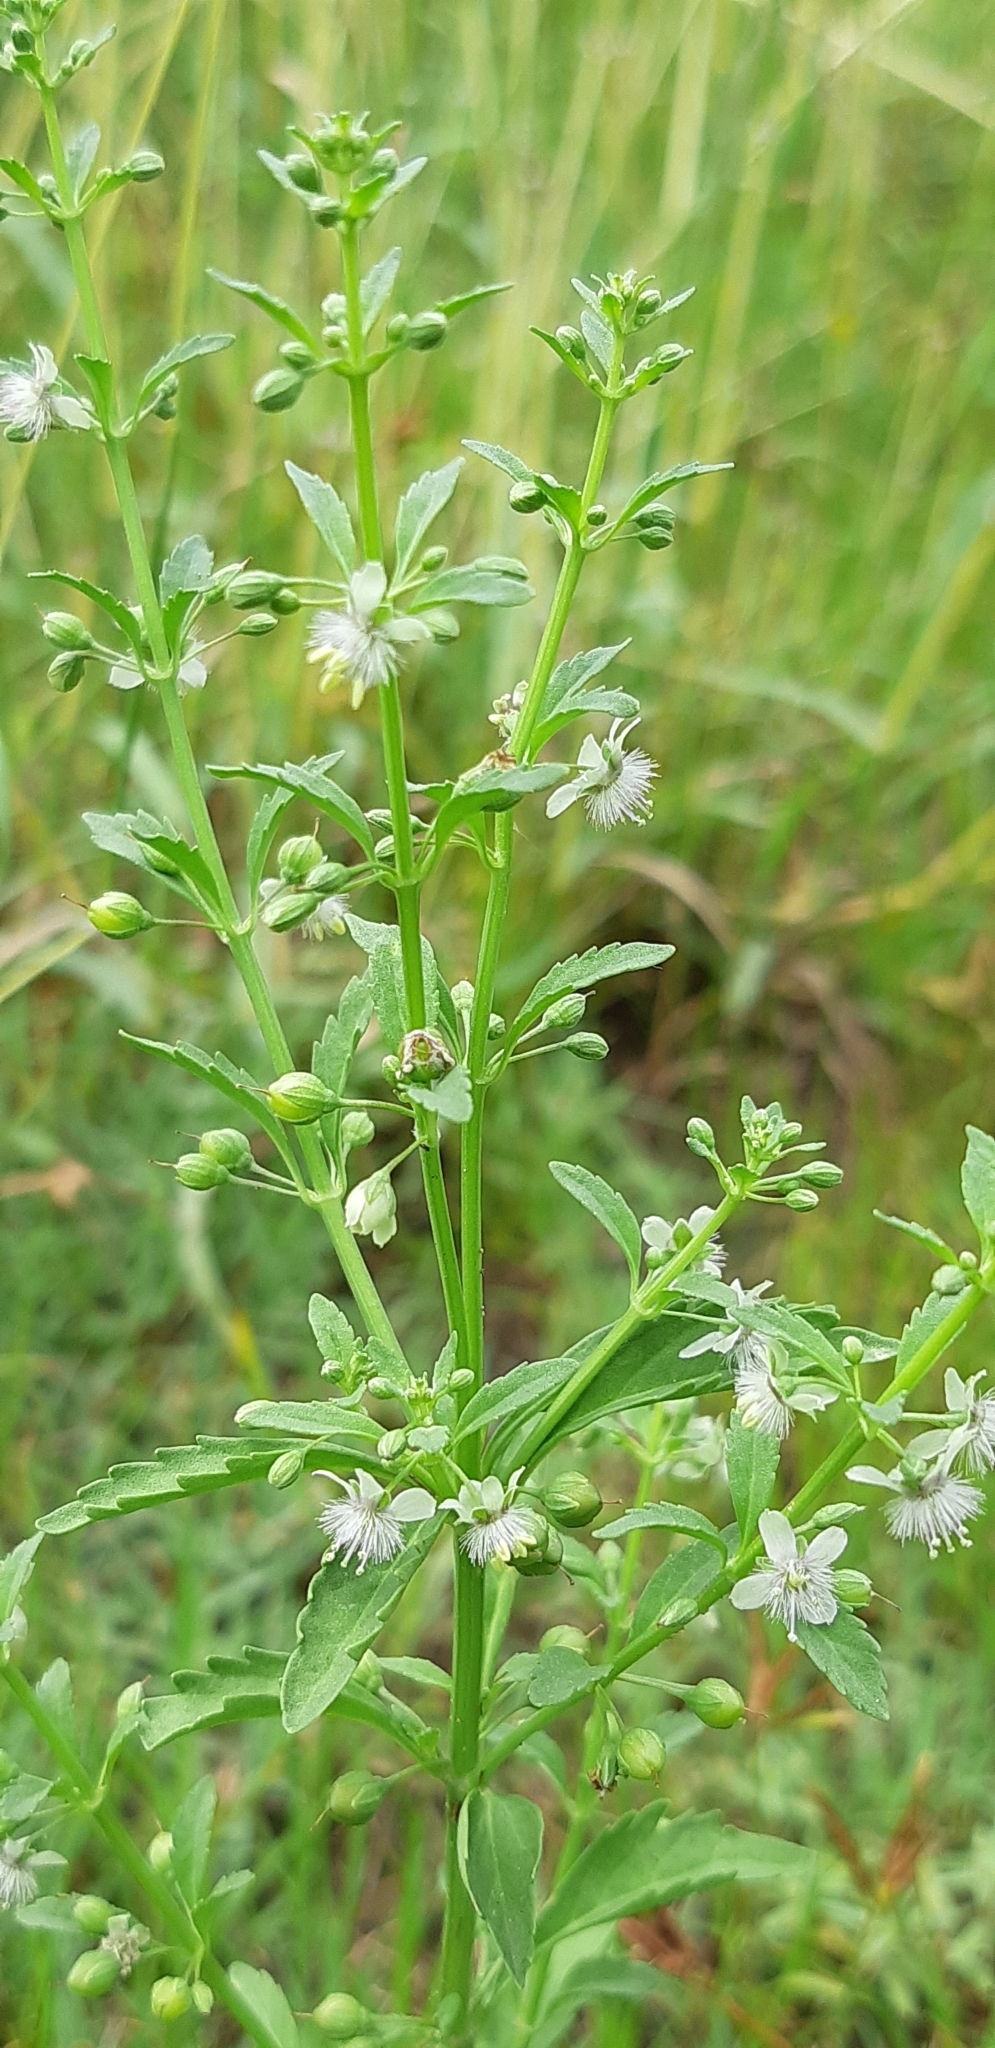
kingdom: Plantae
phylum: Tracheophyta
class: Magnoliopsida
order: Lamiales
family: Plantaginaceae
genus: Scoparia
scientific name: Scoparia dulcis
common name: Scoparia-weed
